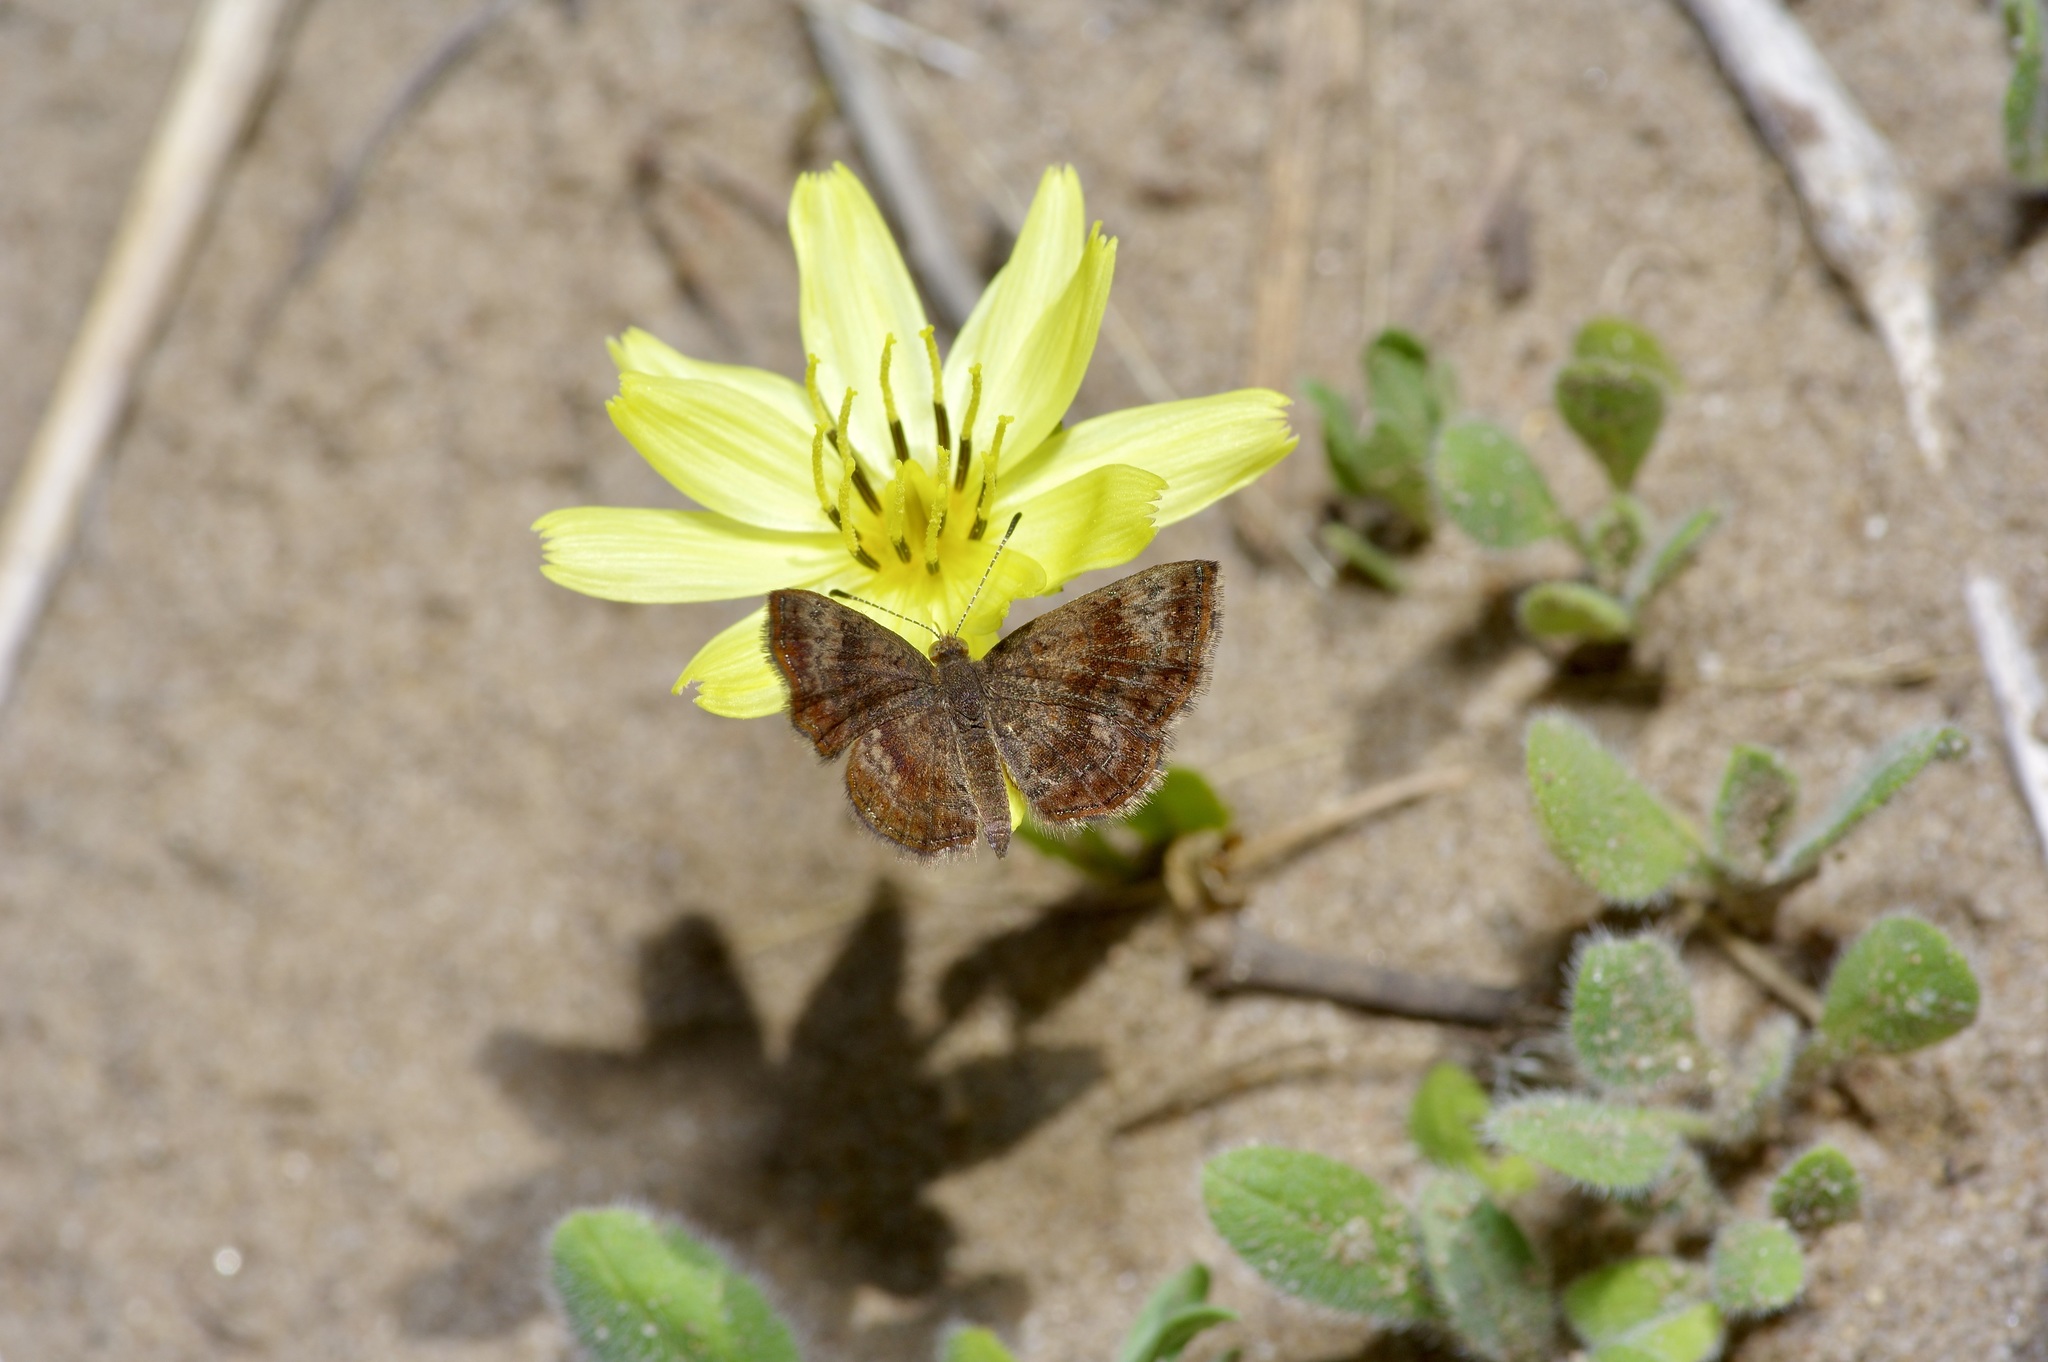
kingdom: Animalia
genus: Calephelis
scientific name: Calephelis perditalis
